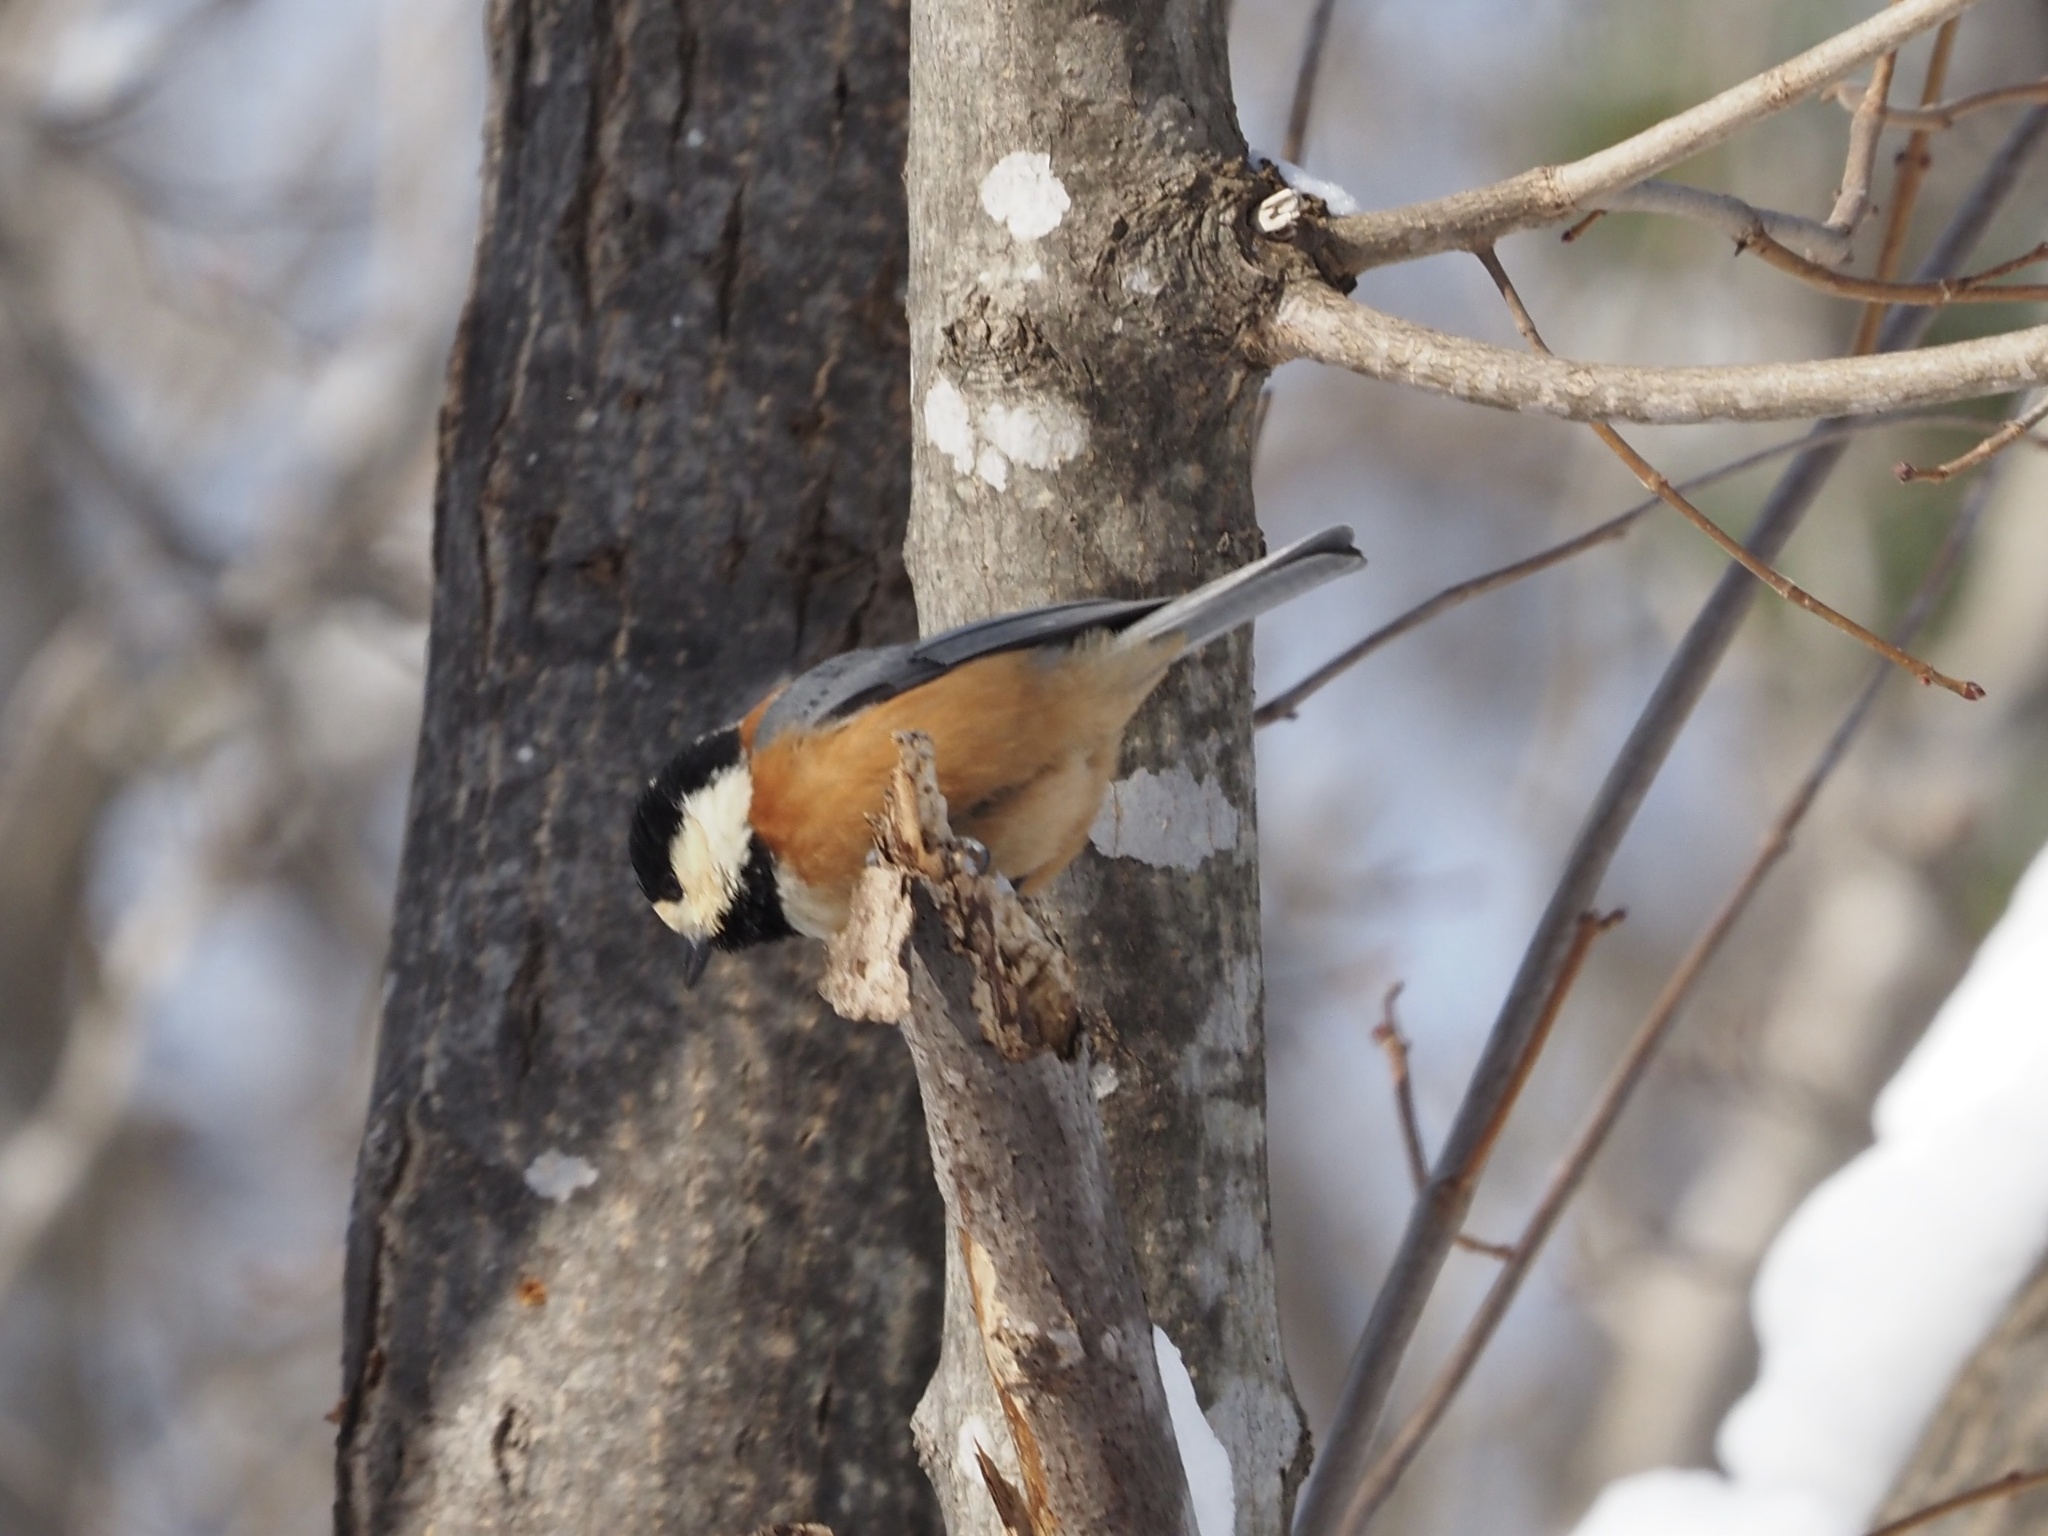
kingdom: Animalia
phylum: Chordata
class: Aves
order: Passeriformes
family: Paridae
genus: Poecile
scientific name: Poecile varius
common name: Varied tit
